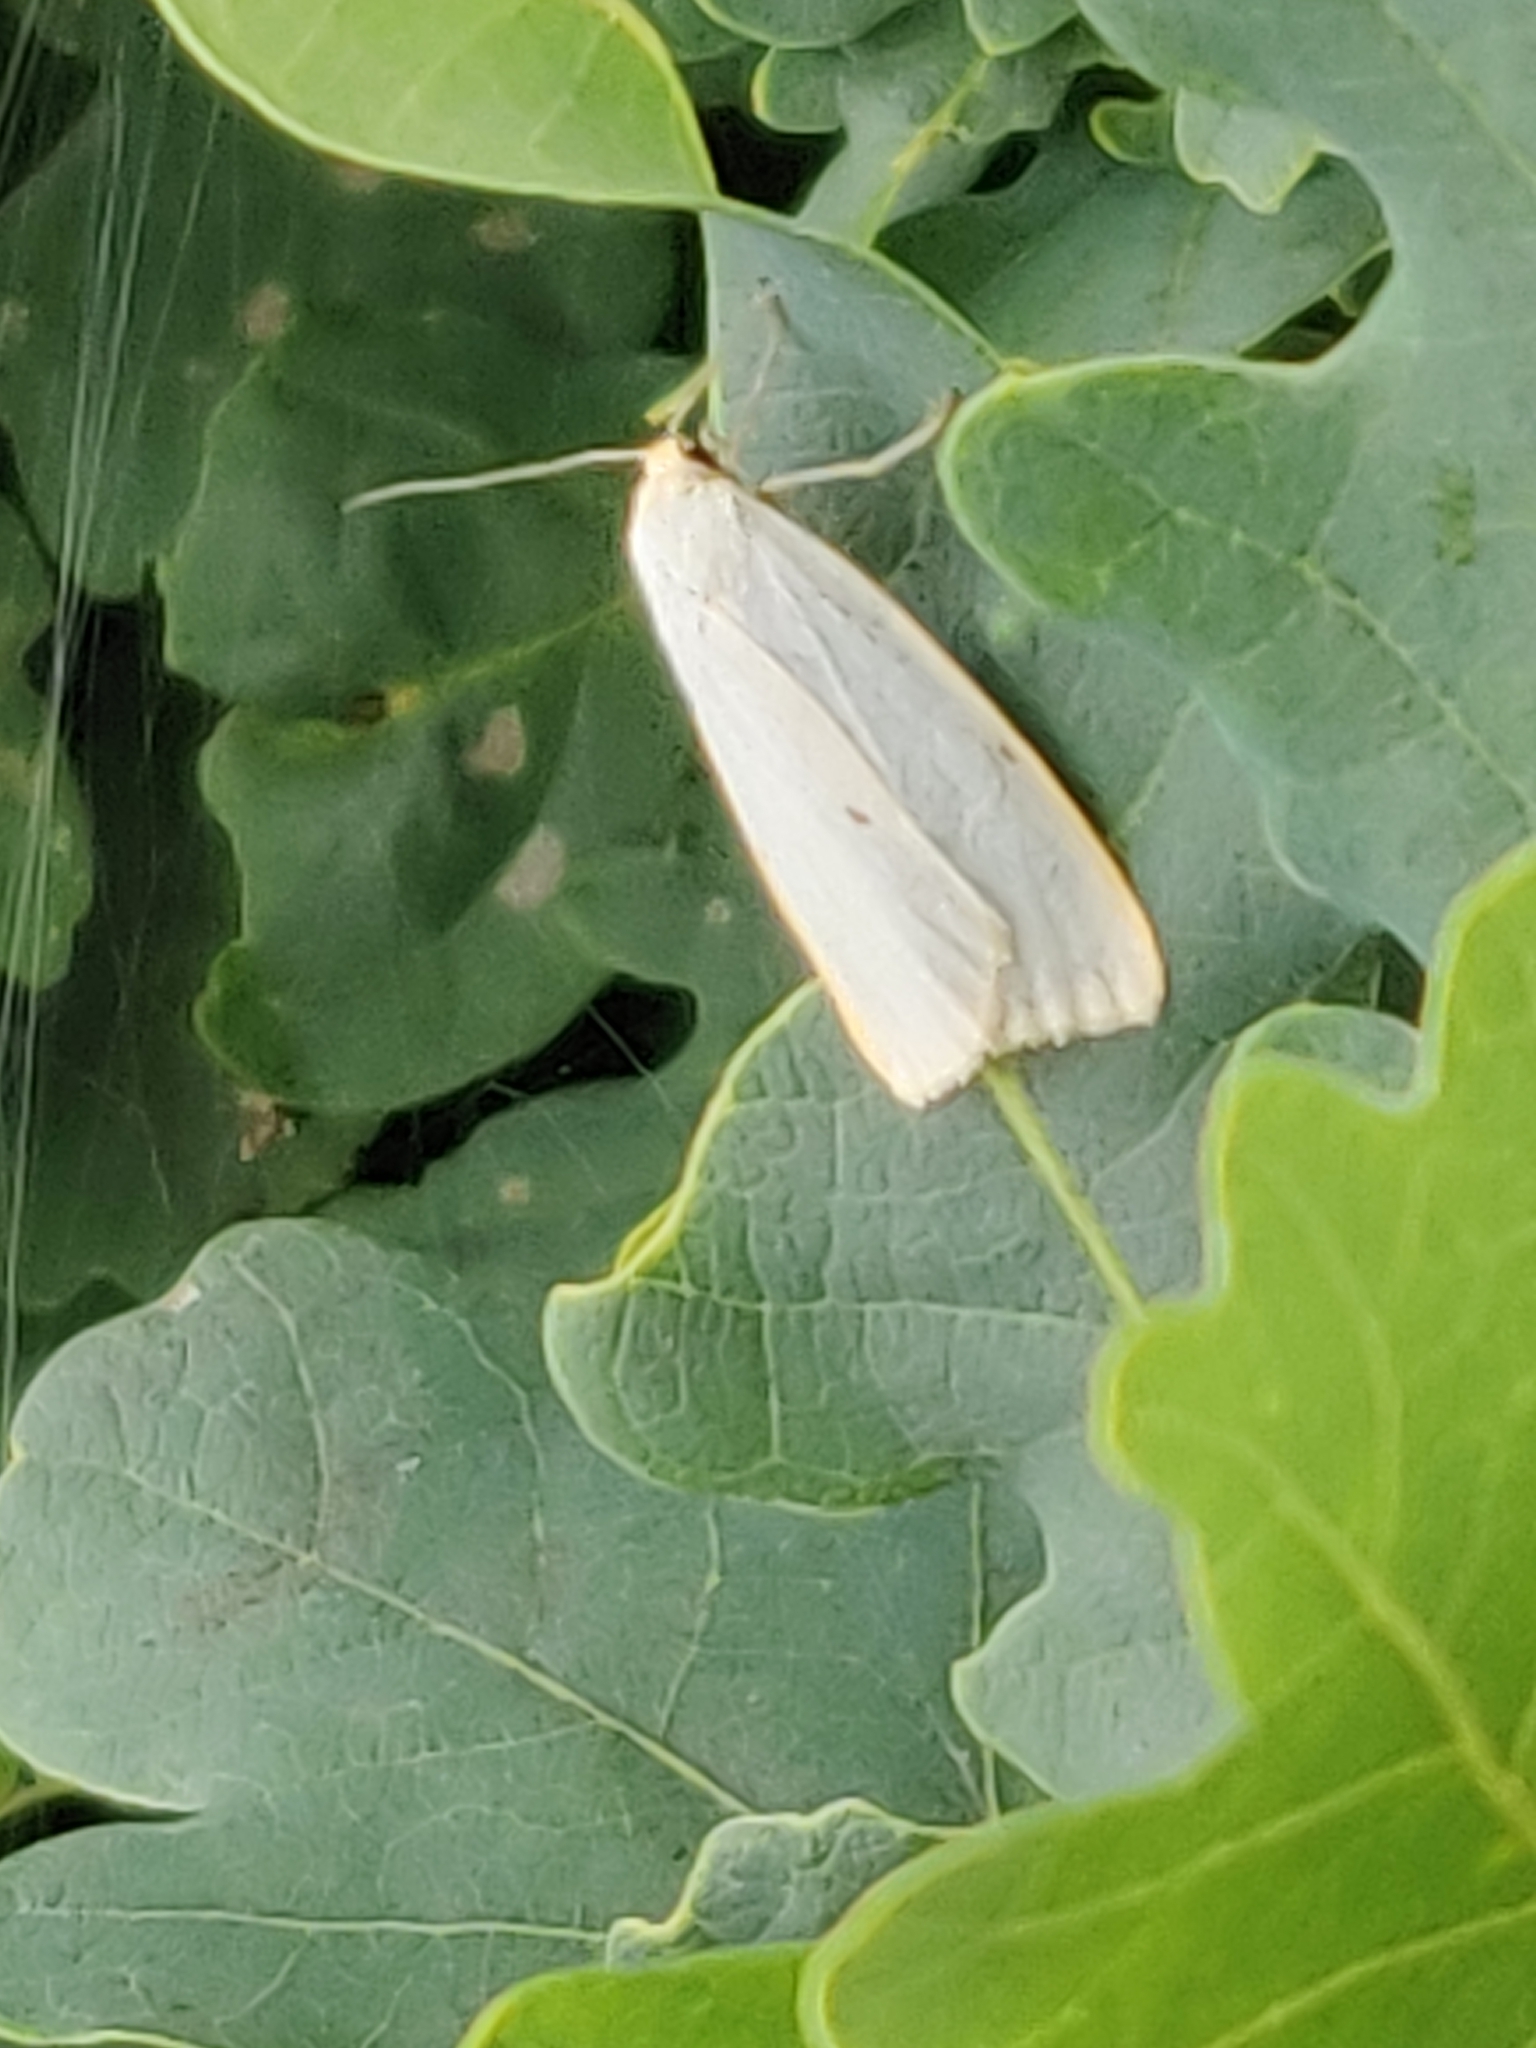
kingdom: Animalia
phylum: Arthropoda
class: Insecta
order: Lepidoptera
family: Erebidae
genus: Cybosia
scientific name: Cybosia mesomella
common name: Four-dotted footman
